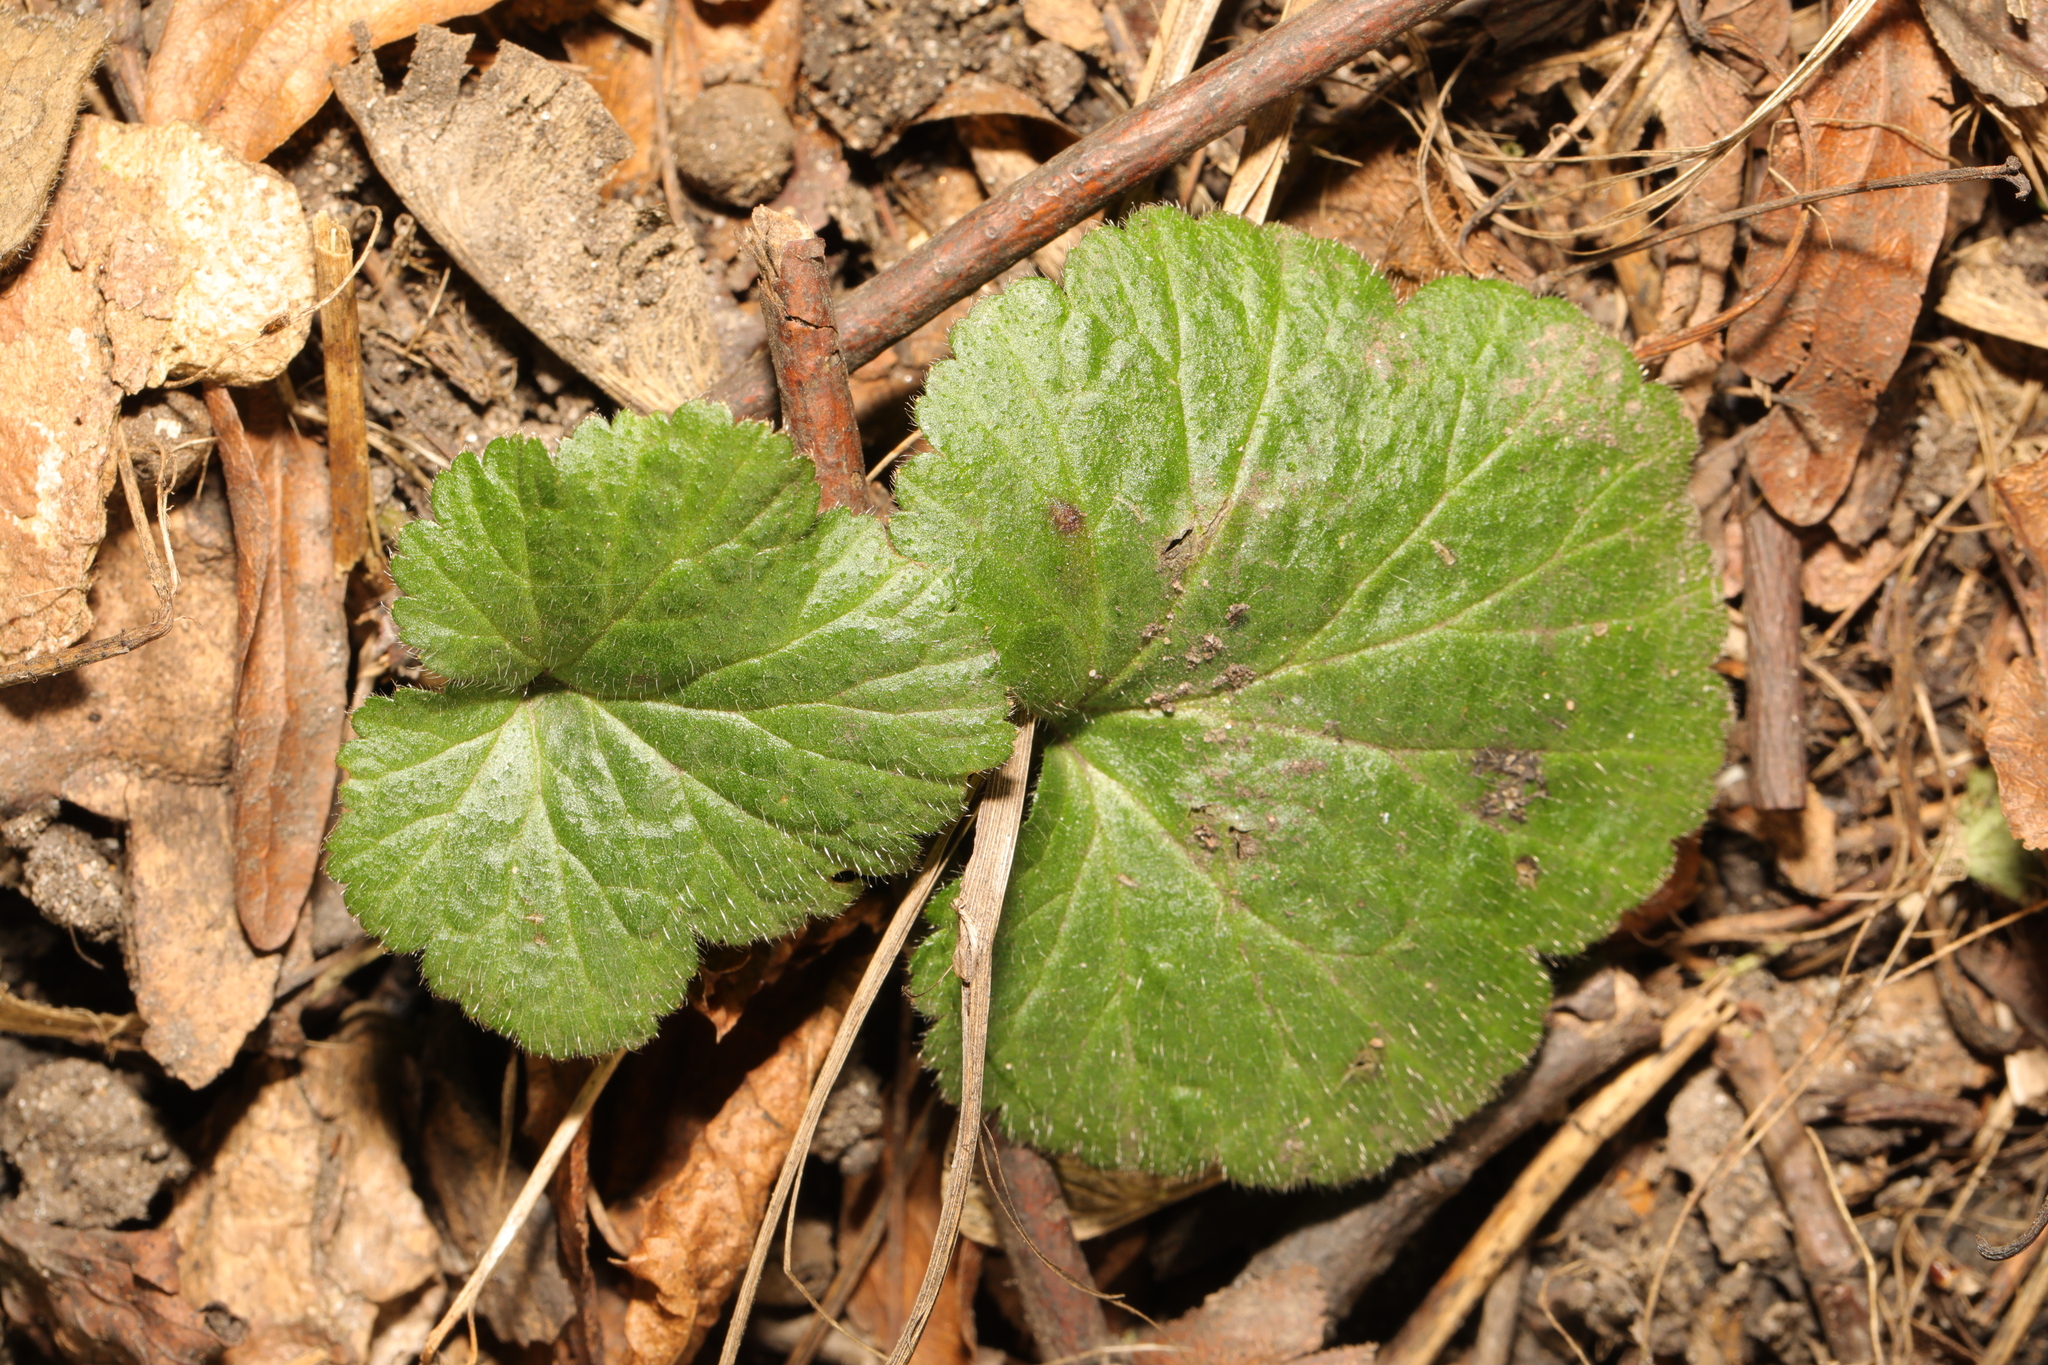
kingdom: Plantae
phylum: Tracheophyta
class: Magnoliopsida
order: Rosales
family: Rosaceae
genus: Geum
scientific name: Geum urbanum
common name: Wood avens
